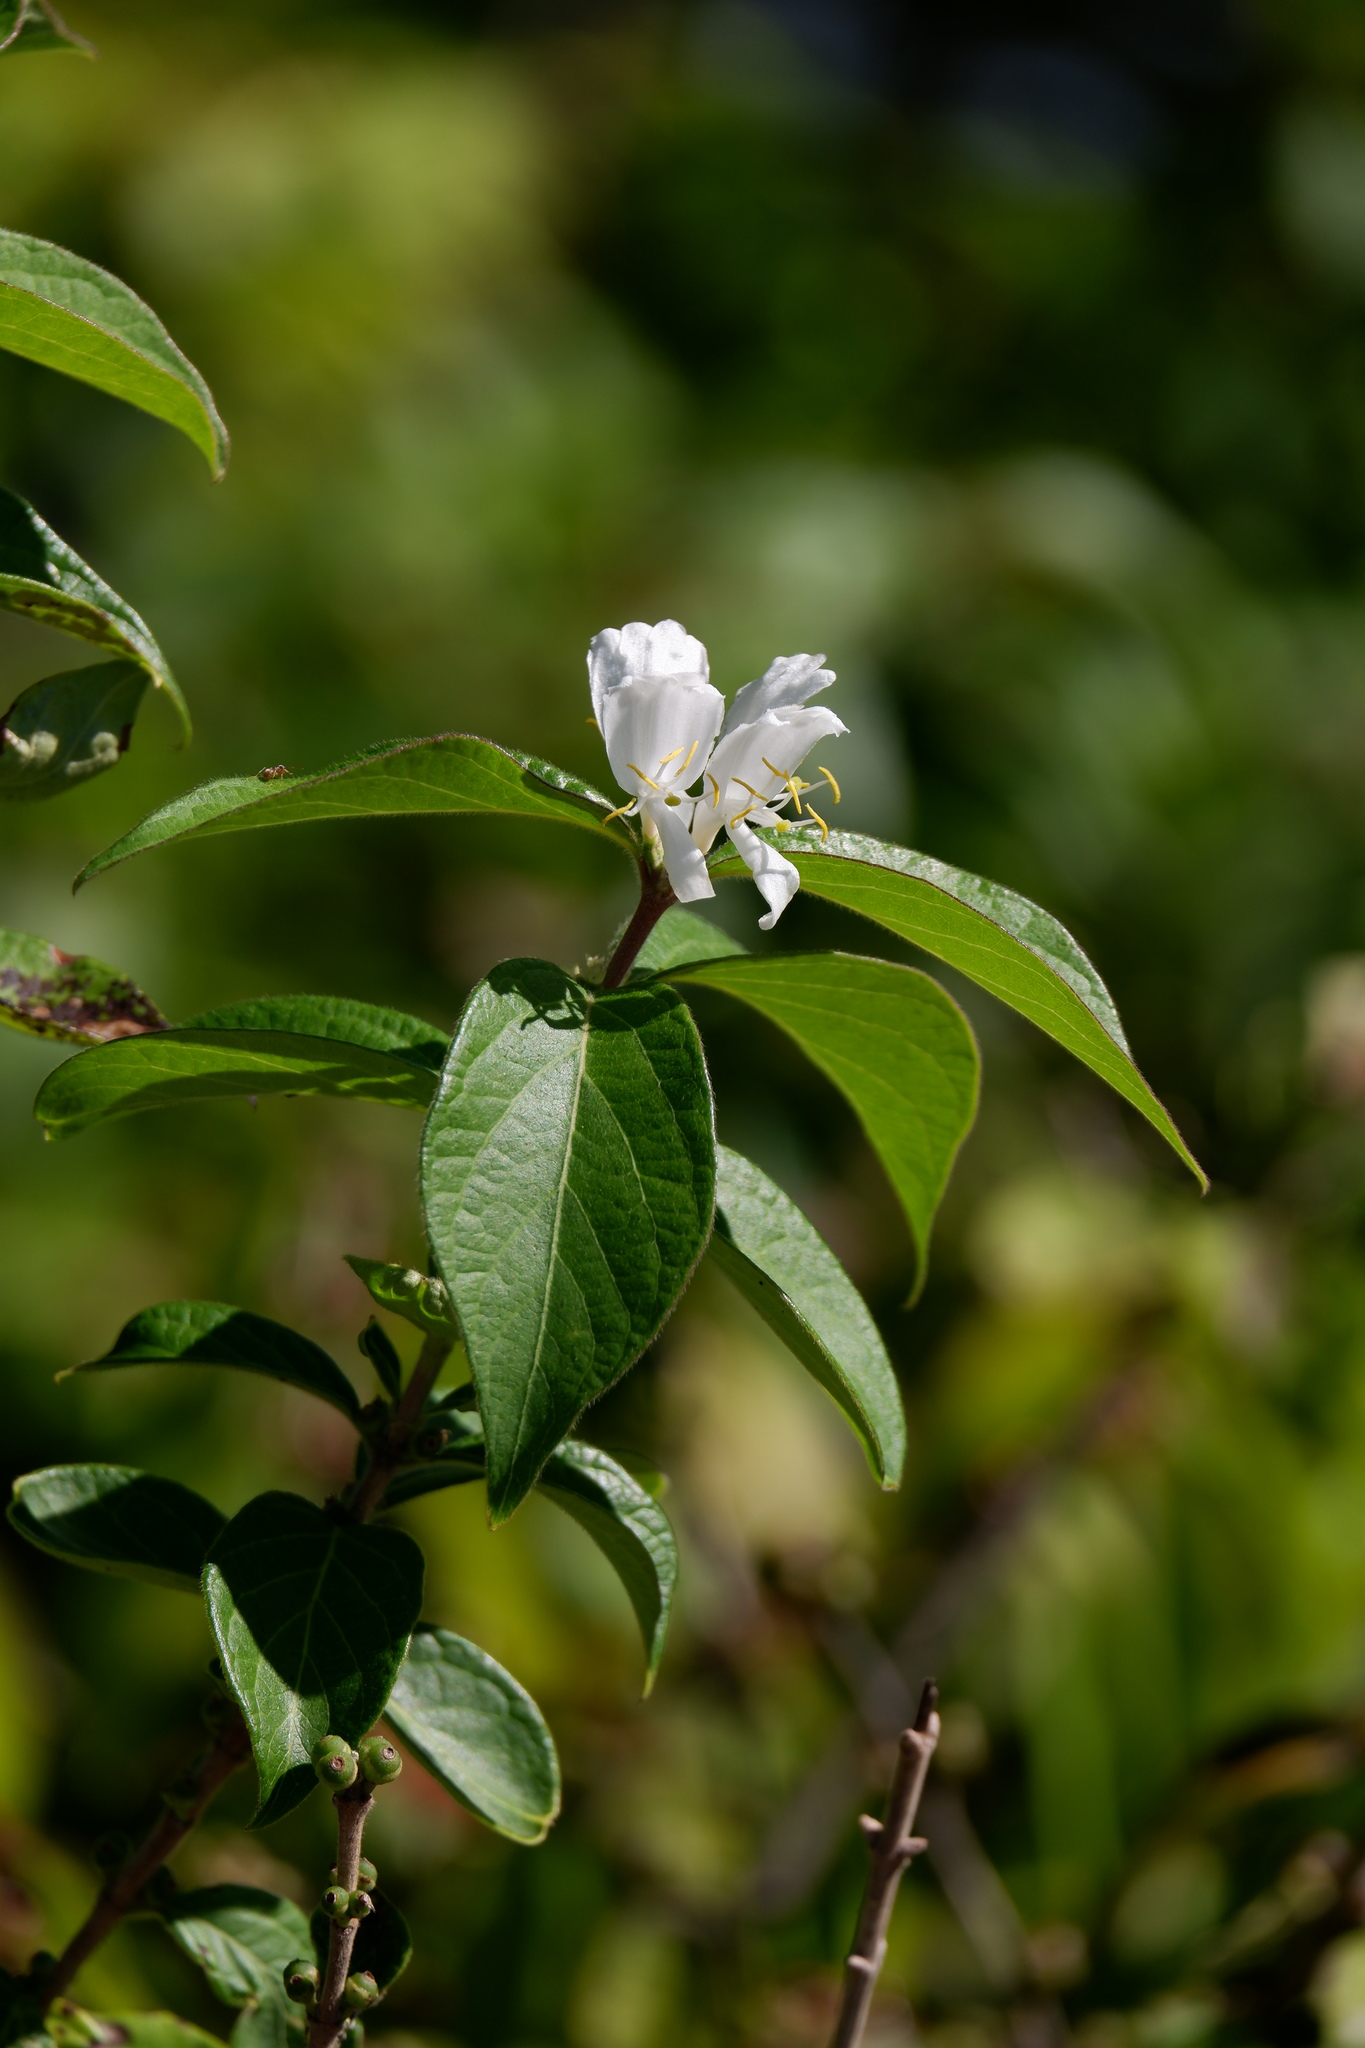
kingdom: Plantae
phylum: Tracheophyta
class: Magnoliopsida
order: Dipsacales
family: Caprifoliaceae
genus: Lonicera
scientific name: Lonicera maackii
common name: Amur honeysuckle
